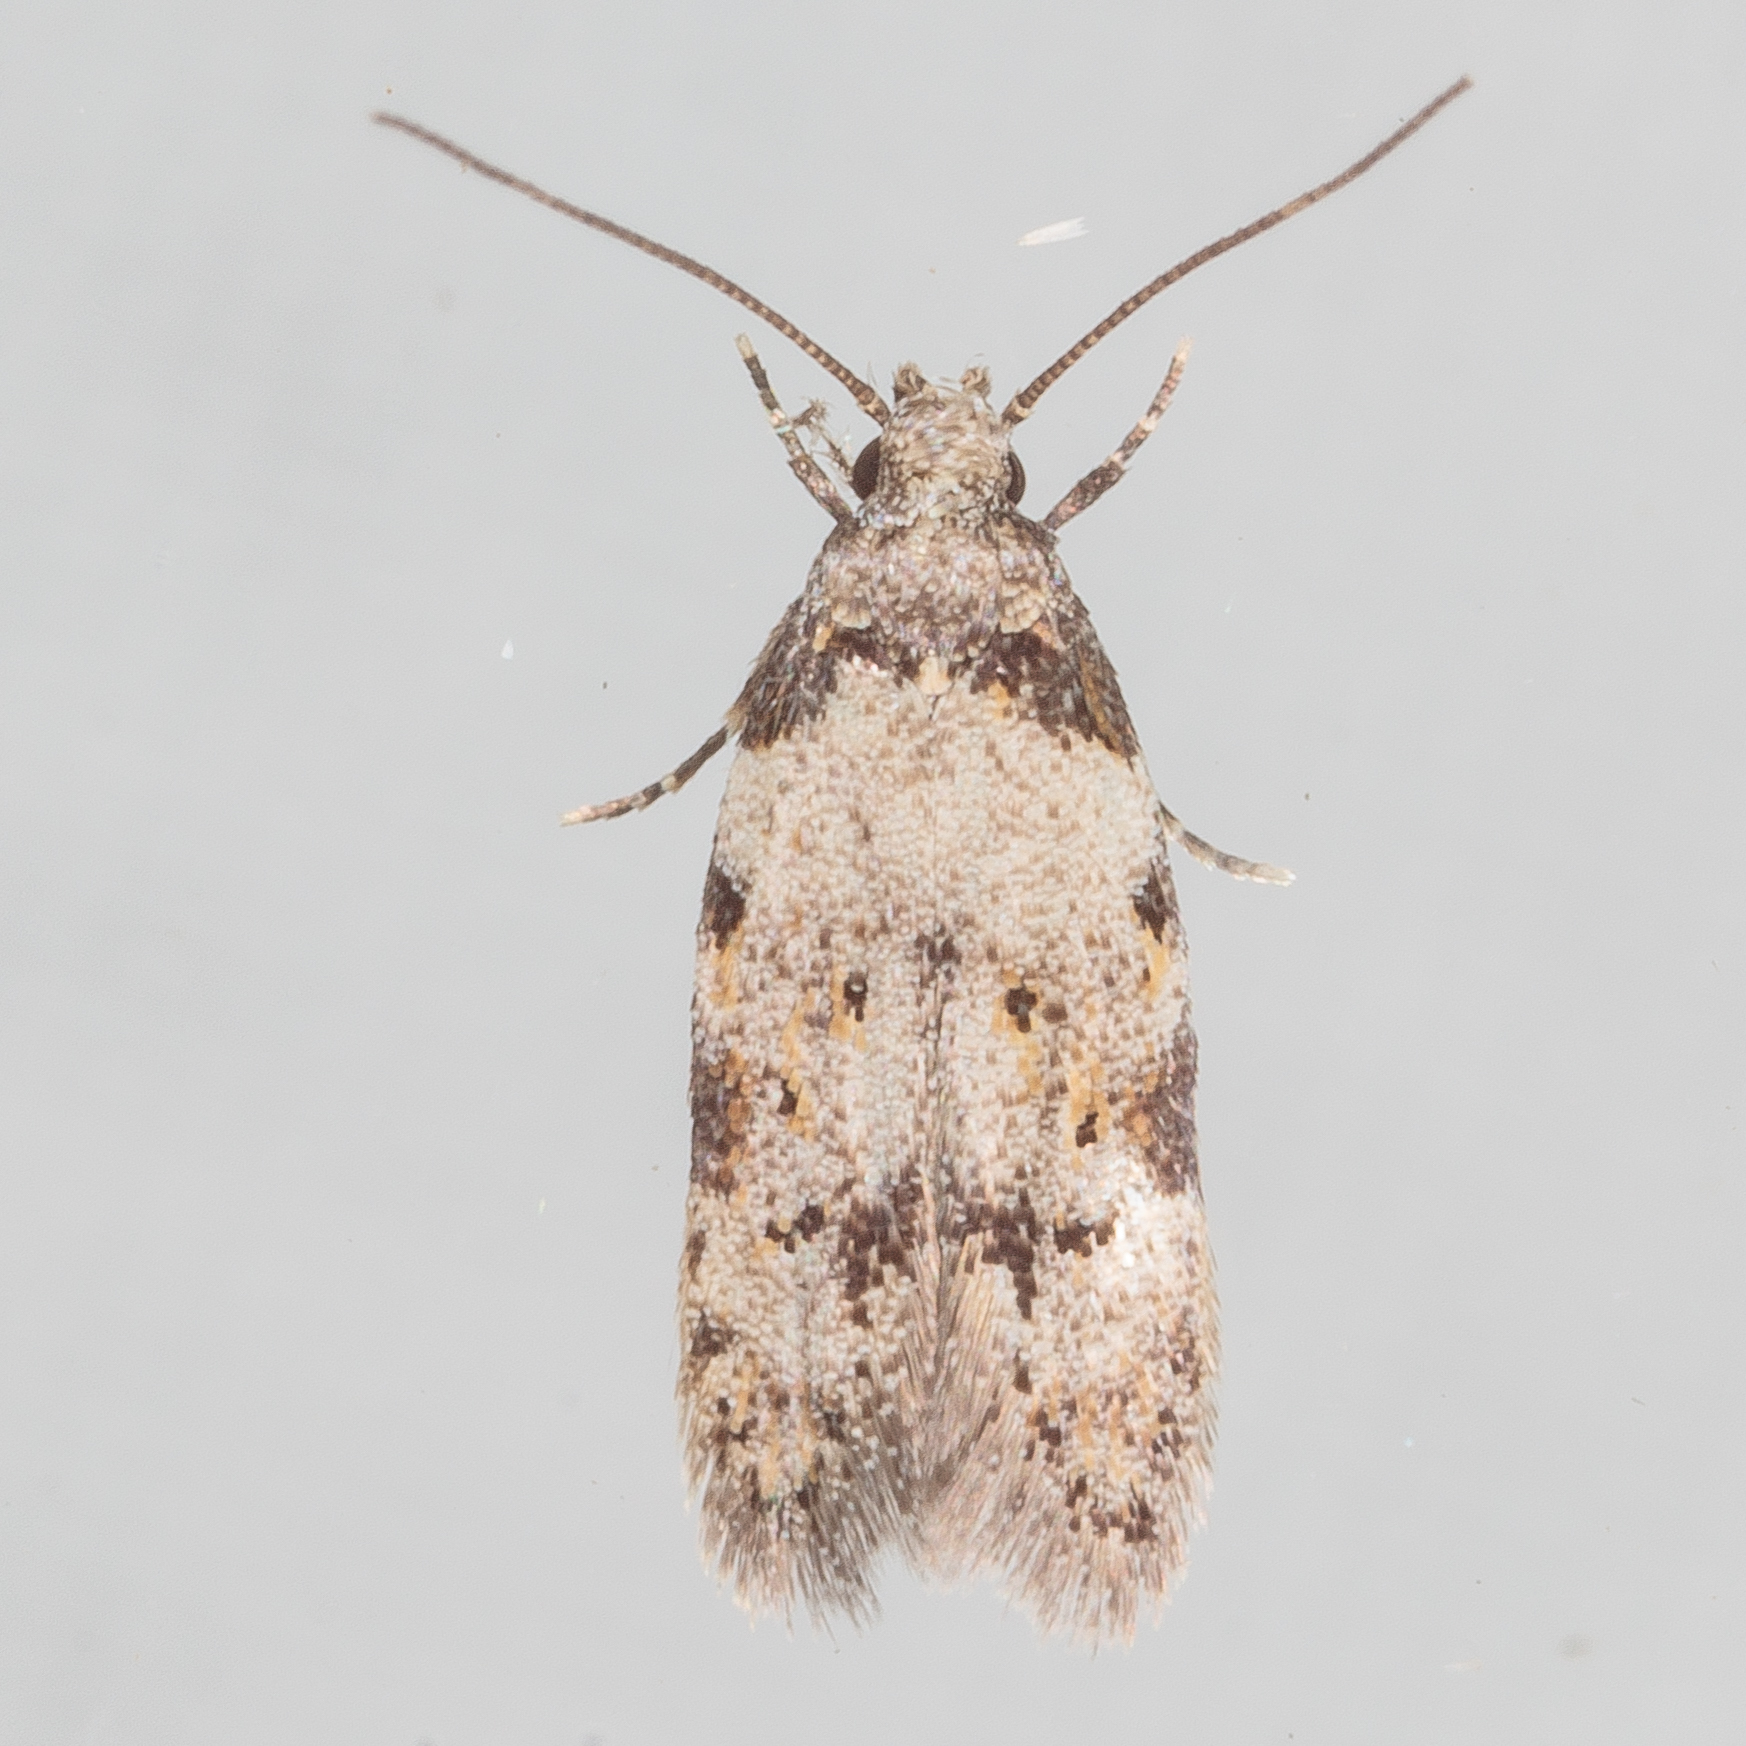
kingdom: Animalia
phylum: Arthropoda
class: Insecta
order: Lepidoptera
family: Autostichidae
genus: Taygete
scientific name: Taygete attributella
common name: Triangle-marked twirler moth
